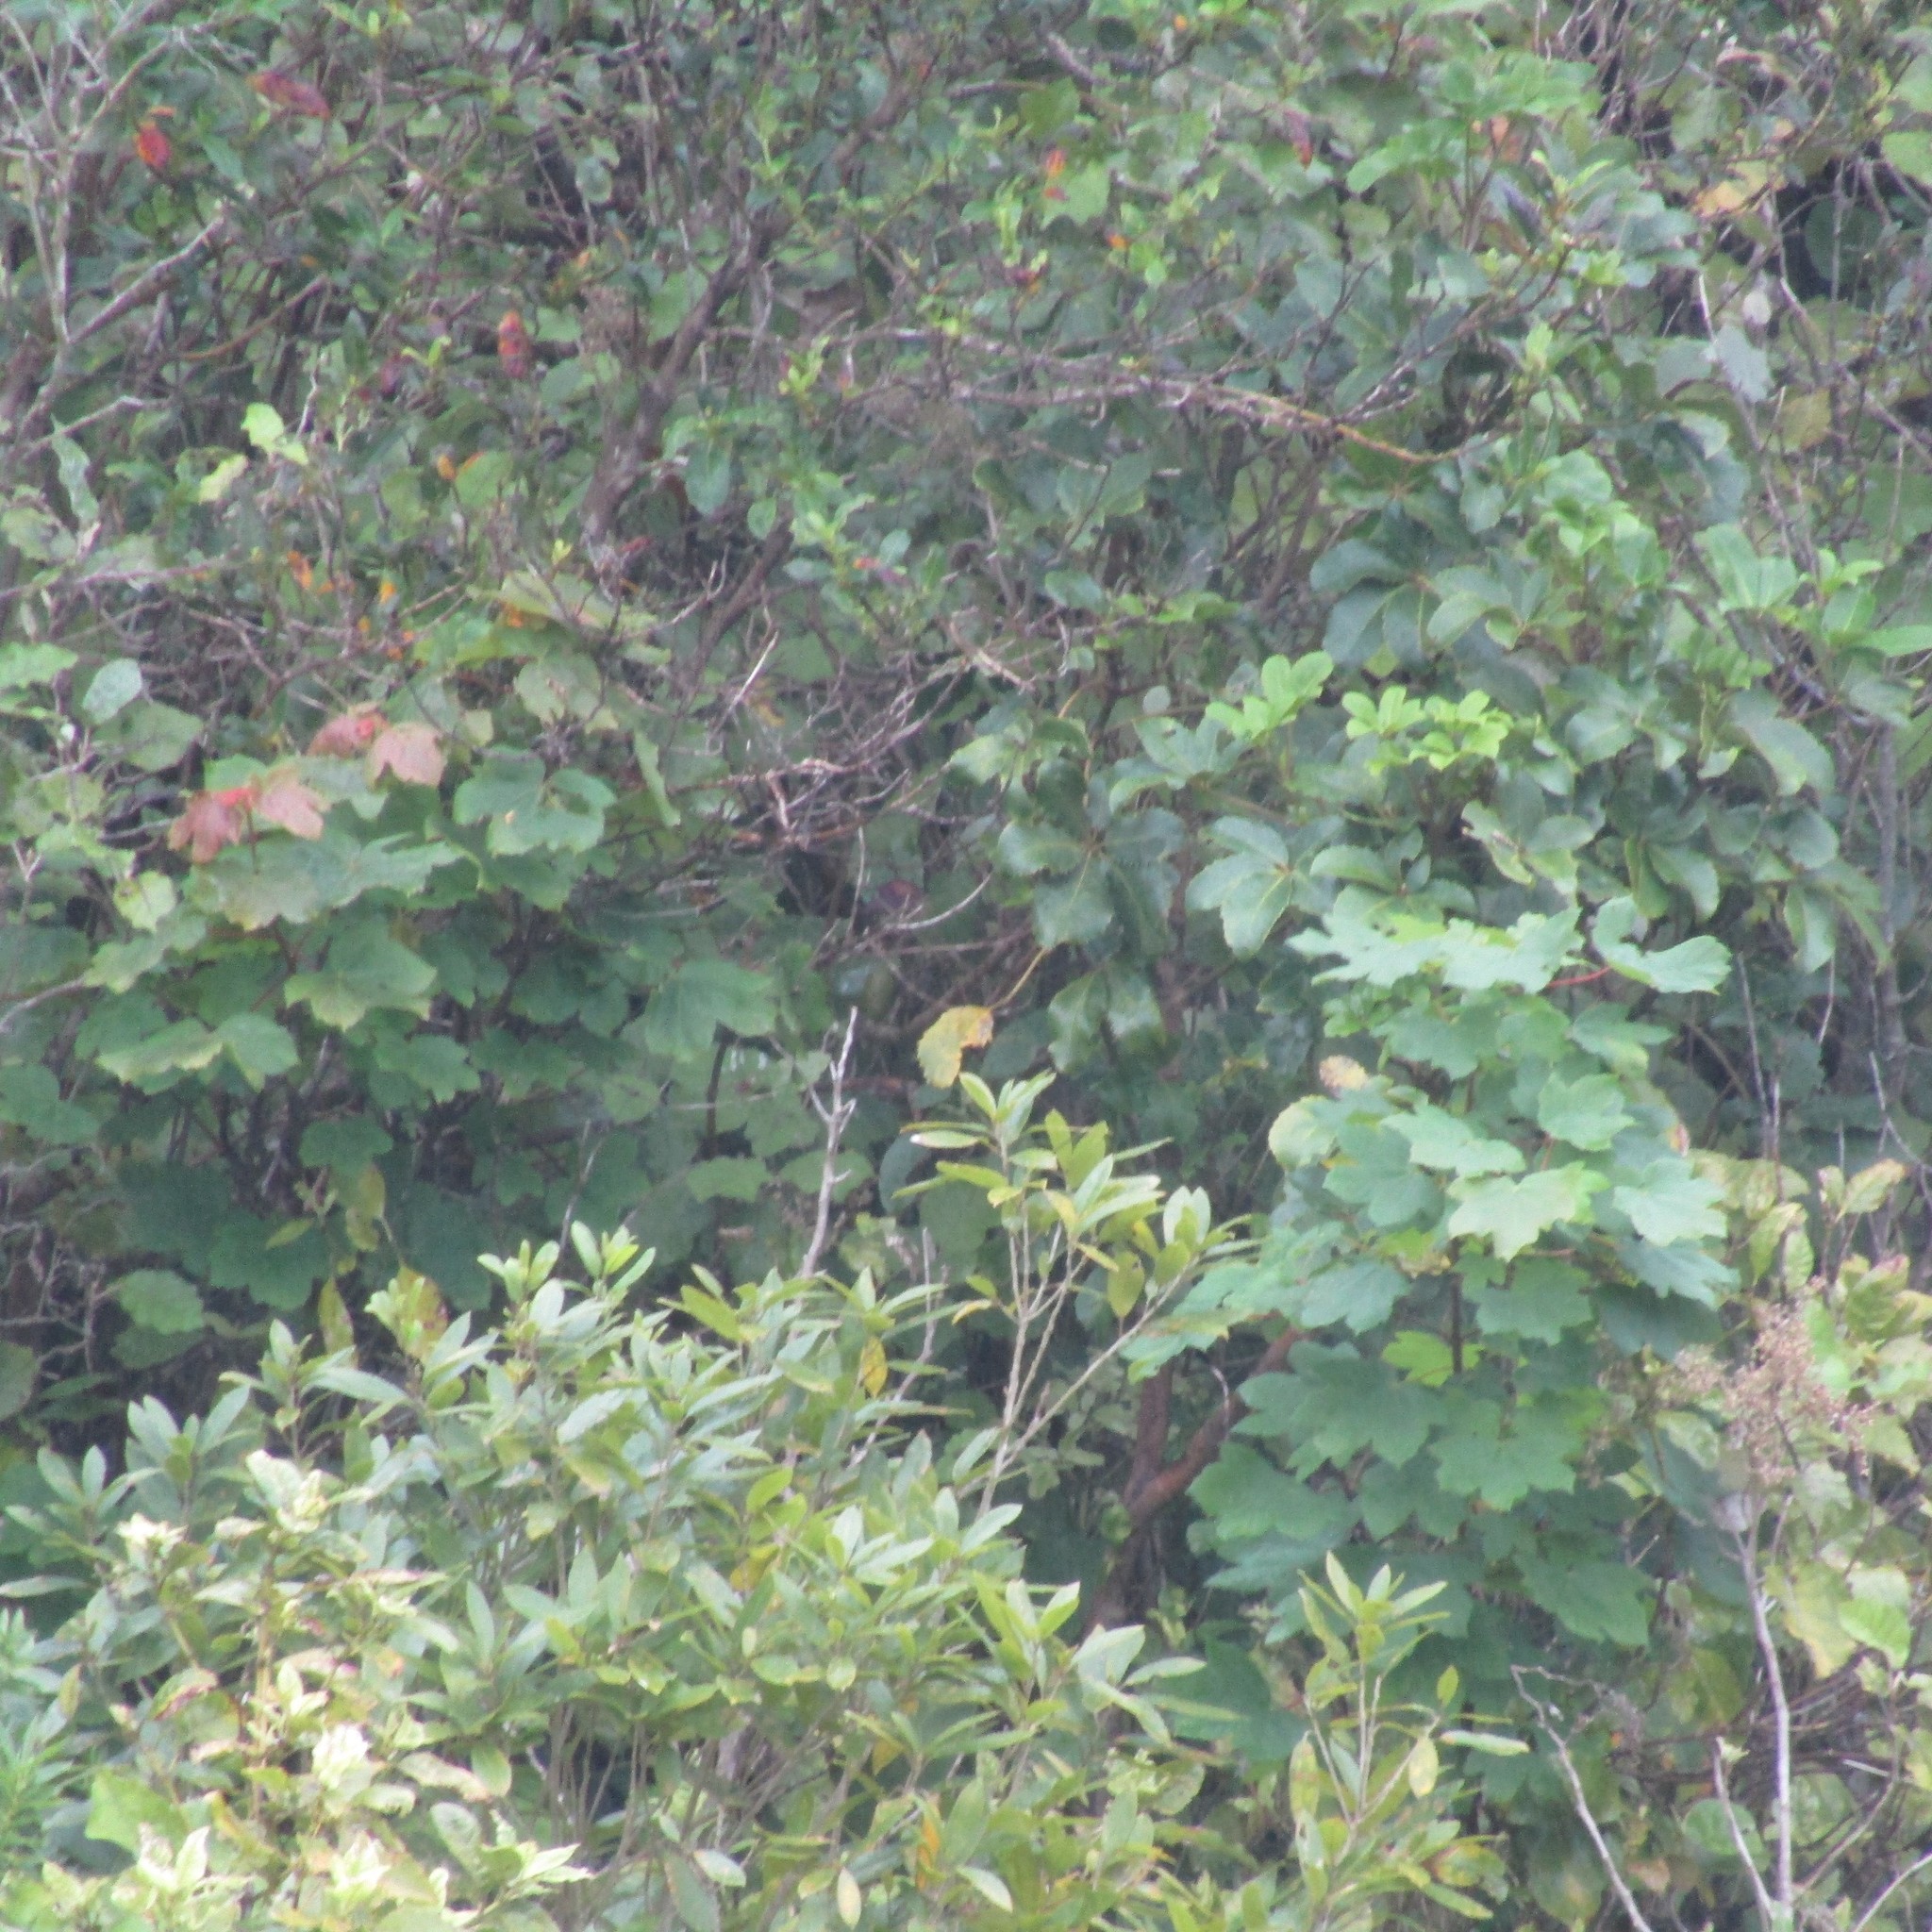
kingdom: Plantae
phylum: Tracheophyta
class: Magnoliopsida
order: Sapindales
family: Sapindaceae
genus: Acer
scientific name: Acer pseudoplatanus
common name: Sycamore
